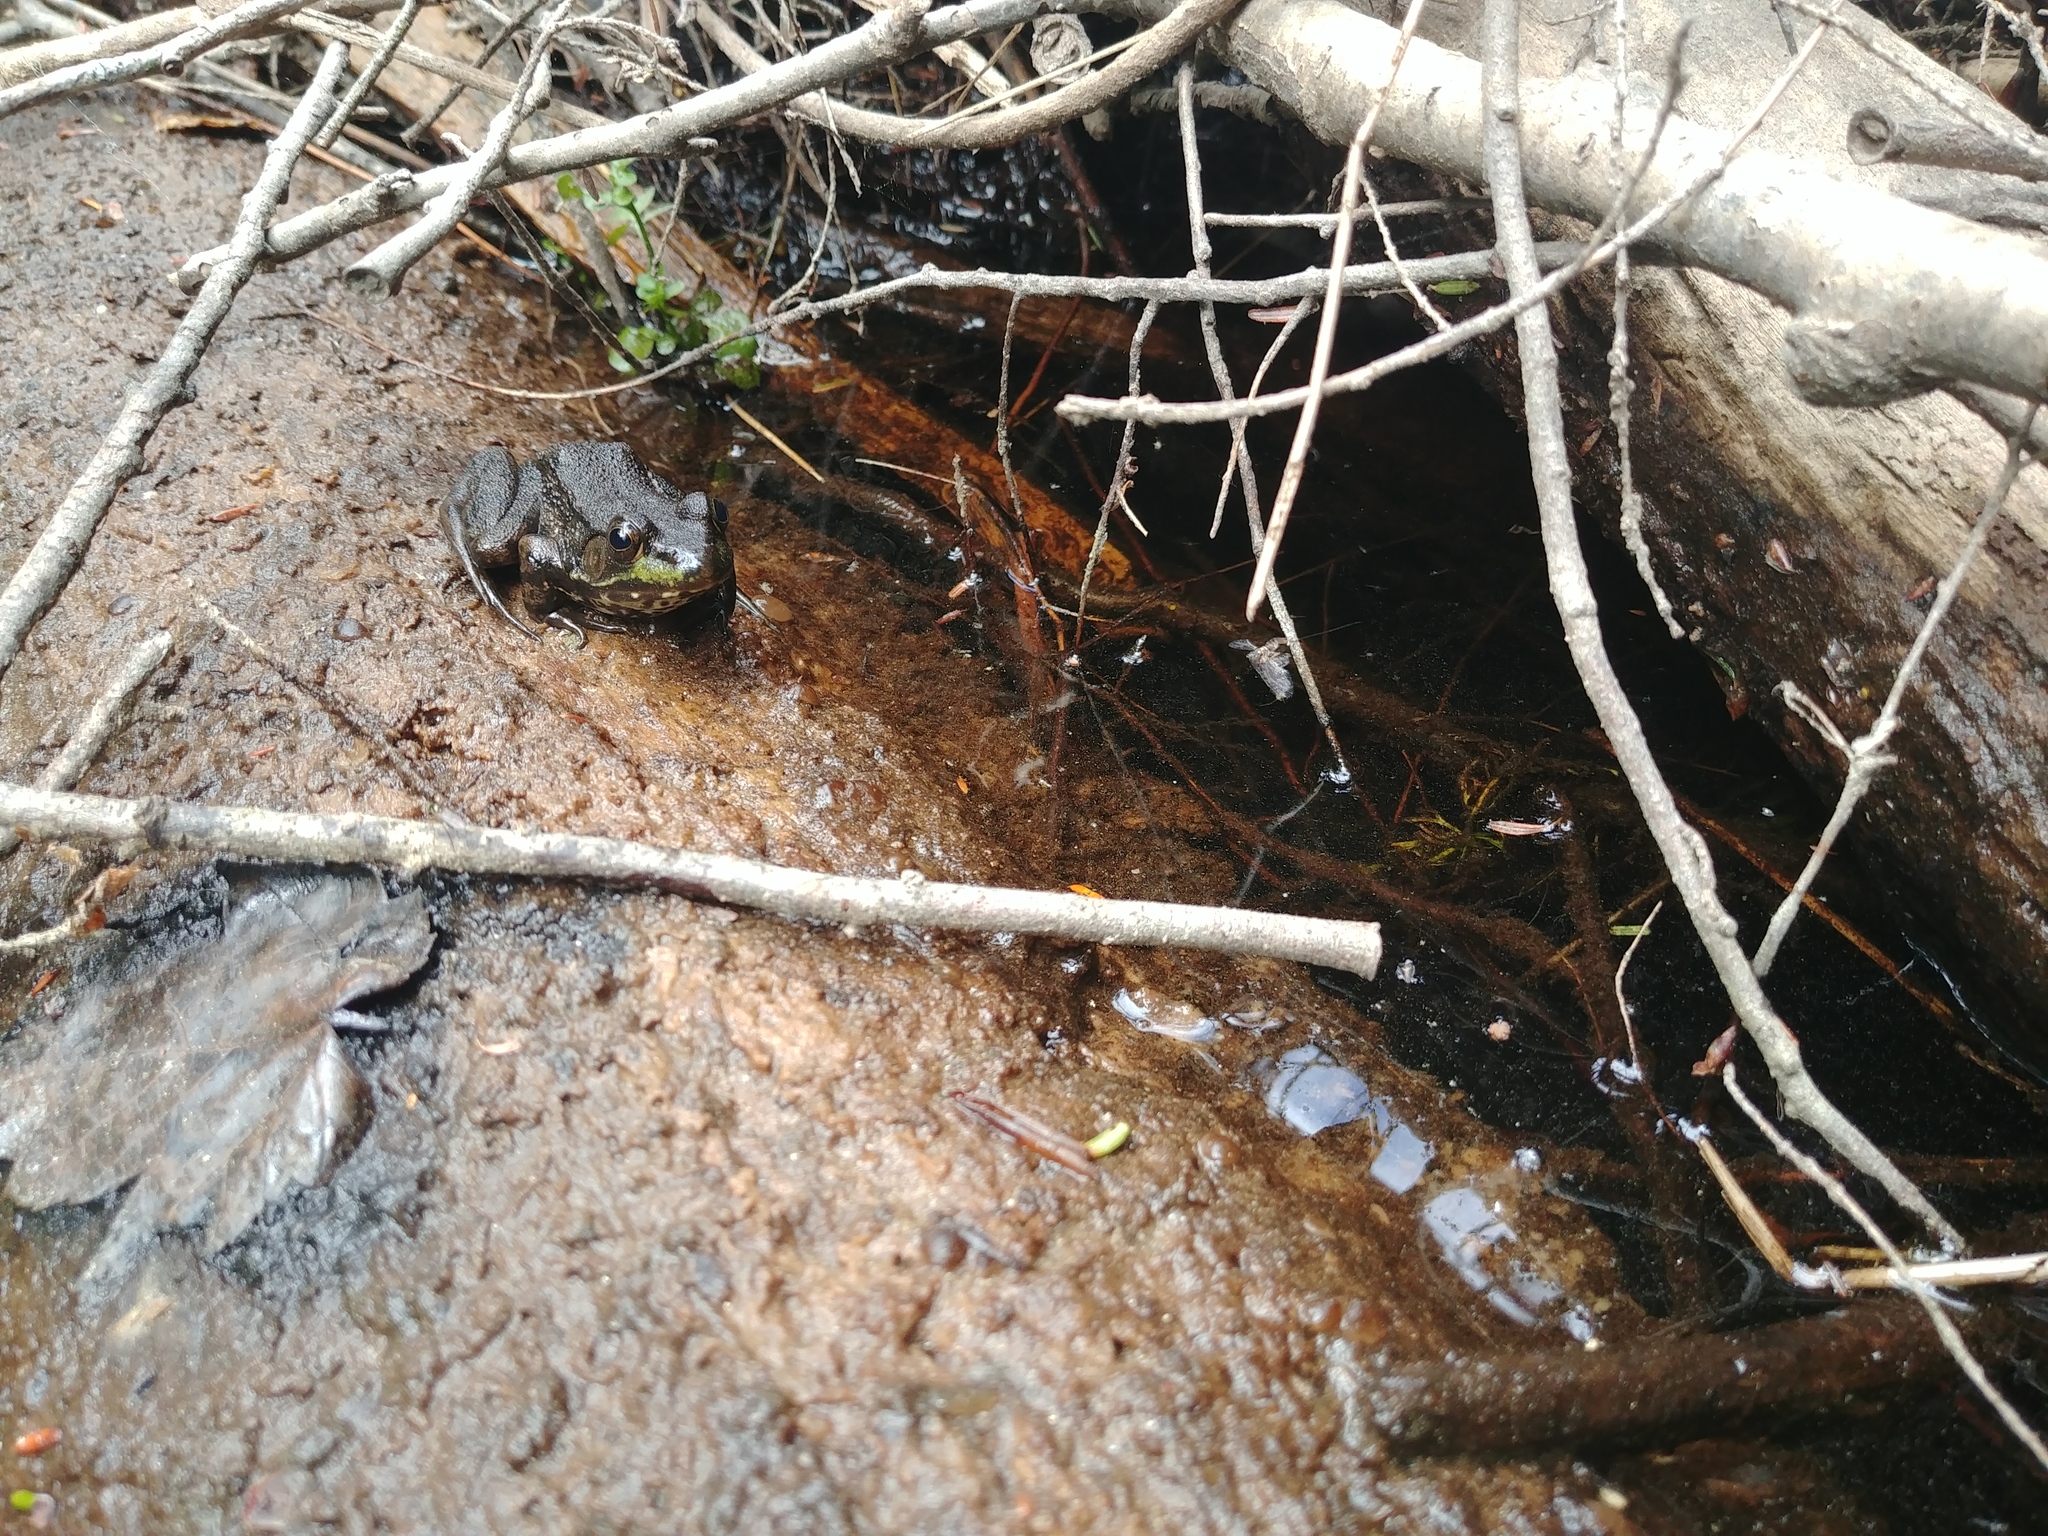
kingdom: Animalia
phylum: Chordata
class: Amphibia
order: Anura
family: Ranidae
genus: Lithobates
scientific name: Lithobates clamitans
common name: Green frog
